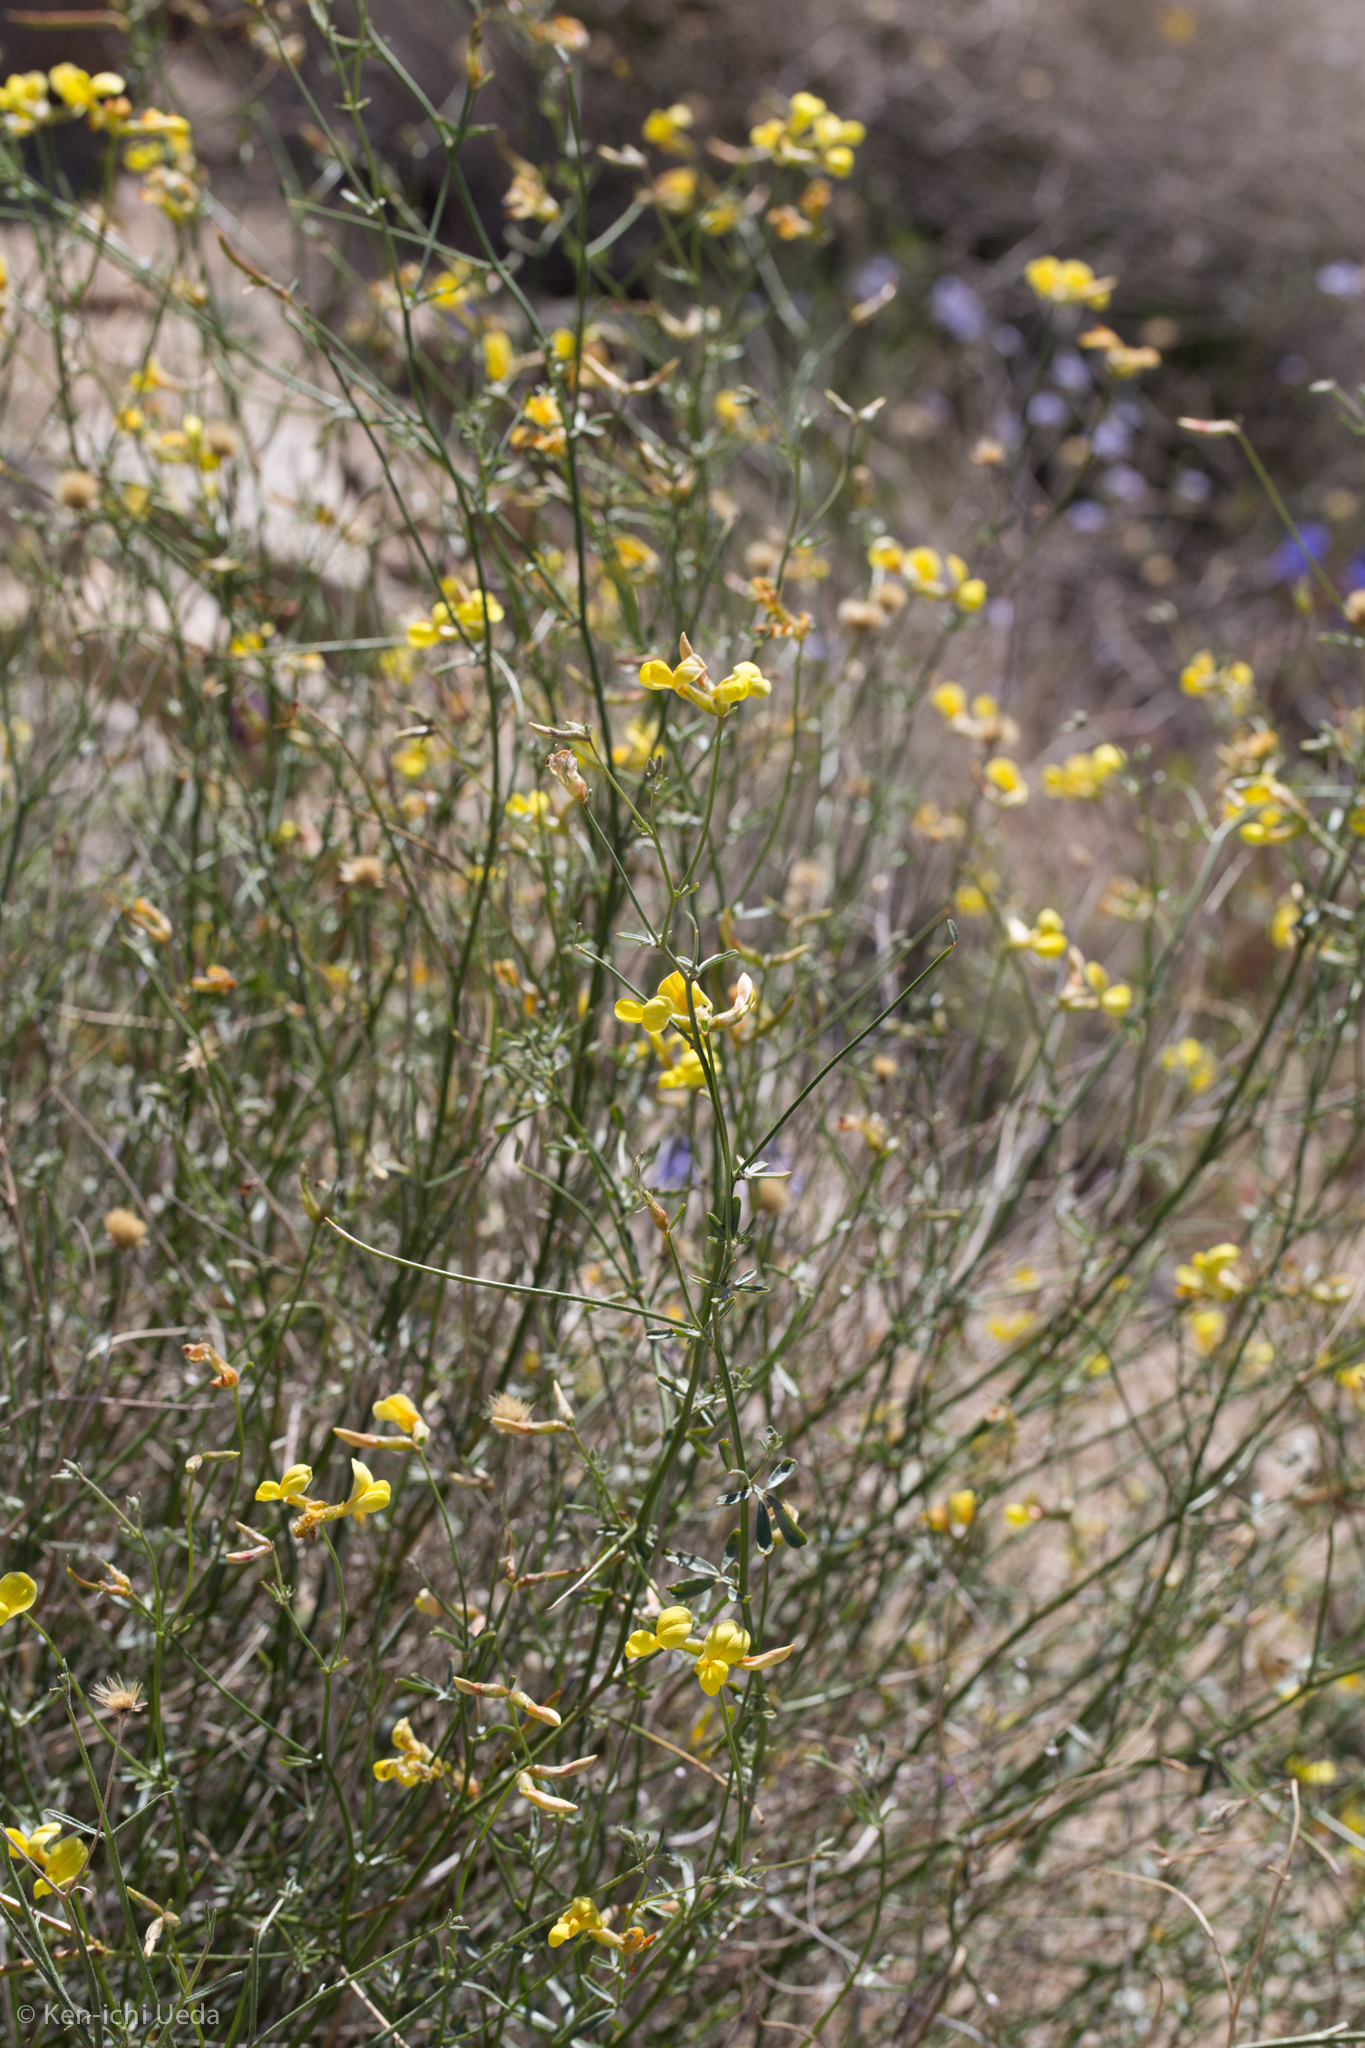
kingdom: Plantae
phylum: Tracheophyta
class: Magnoliopsida
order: Fabales
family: Fabaceae
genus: Acmispon
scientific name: Acmispon rigidus
